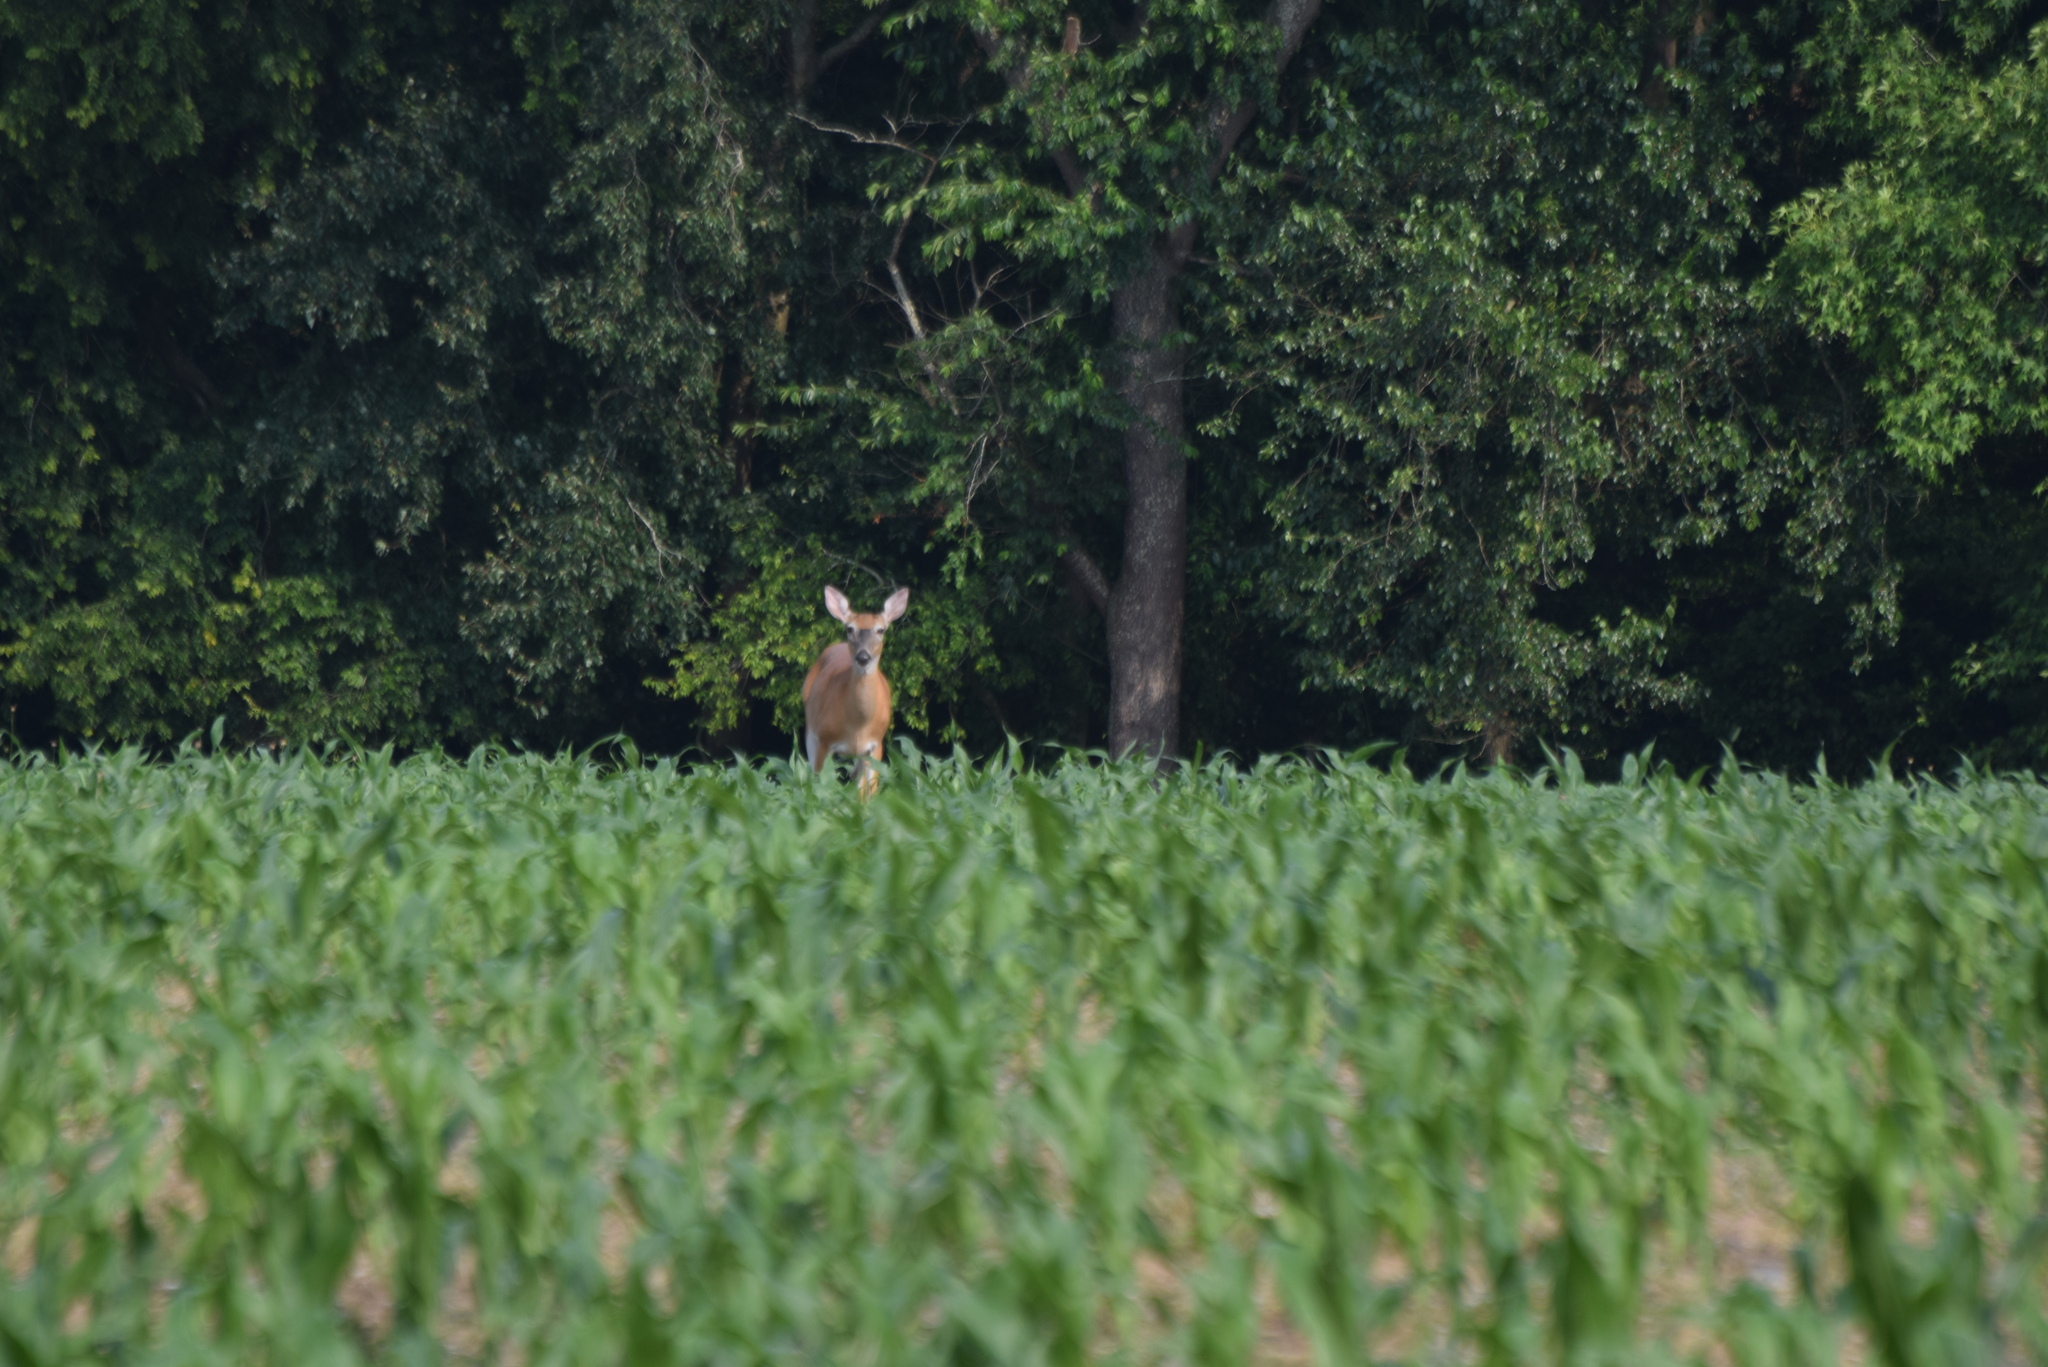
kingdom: Animalia
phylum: Chordata
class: Mammalia
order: Artiodactyla
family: Cervidae
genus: Odocoileus
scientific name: Odocoileus virginianus
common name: White-tailed deer
